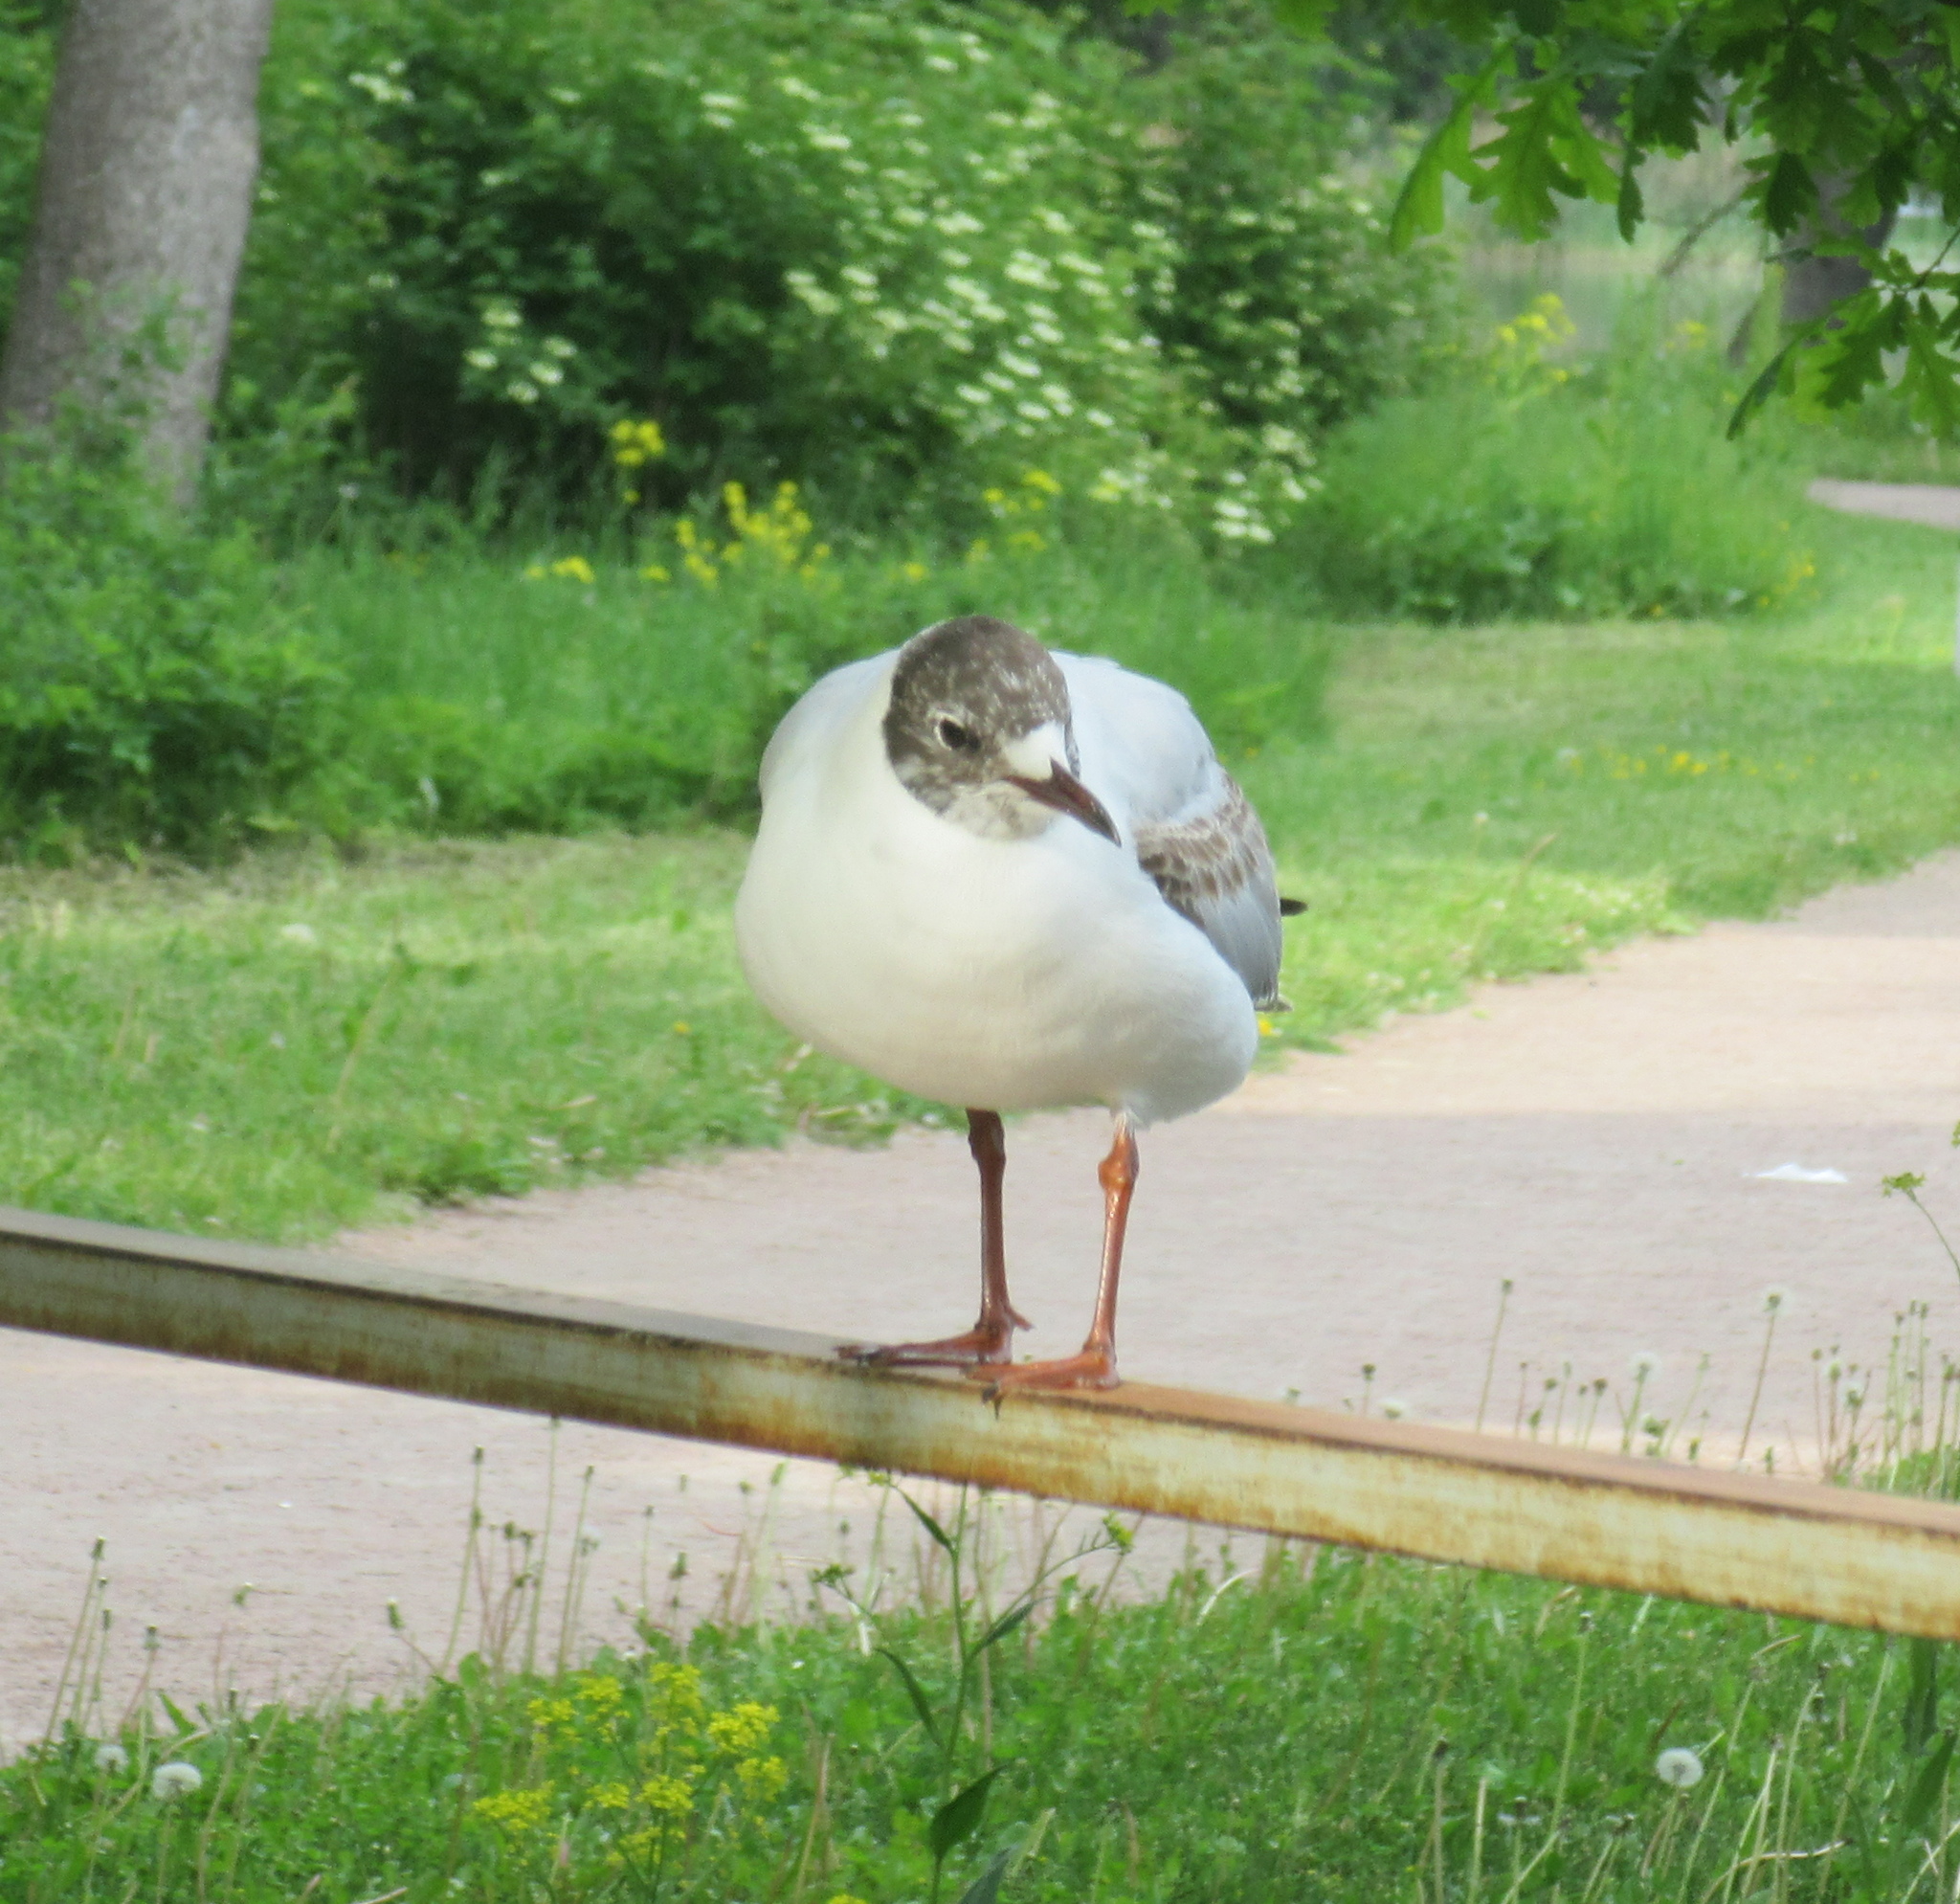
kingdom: Animalia
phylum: Chordata
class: Aves
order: Charadriiformes
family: Laridae
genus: Chroicocephalus
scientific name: Chroicocephalus ridibundus
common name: Black-headed gull
